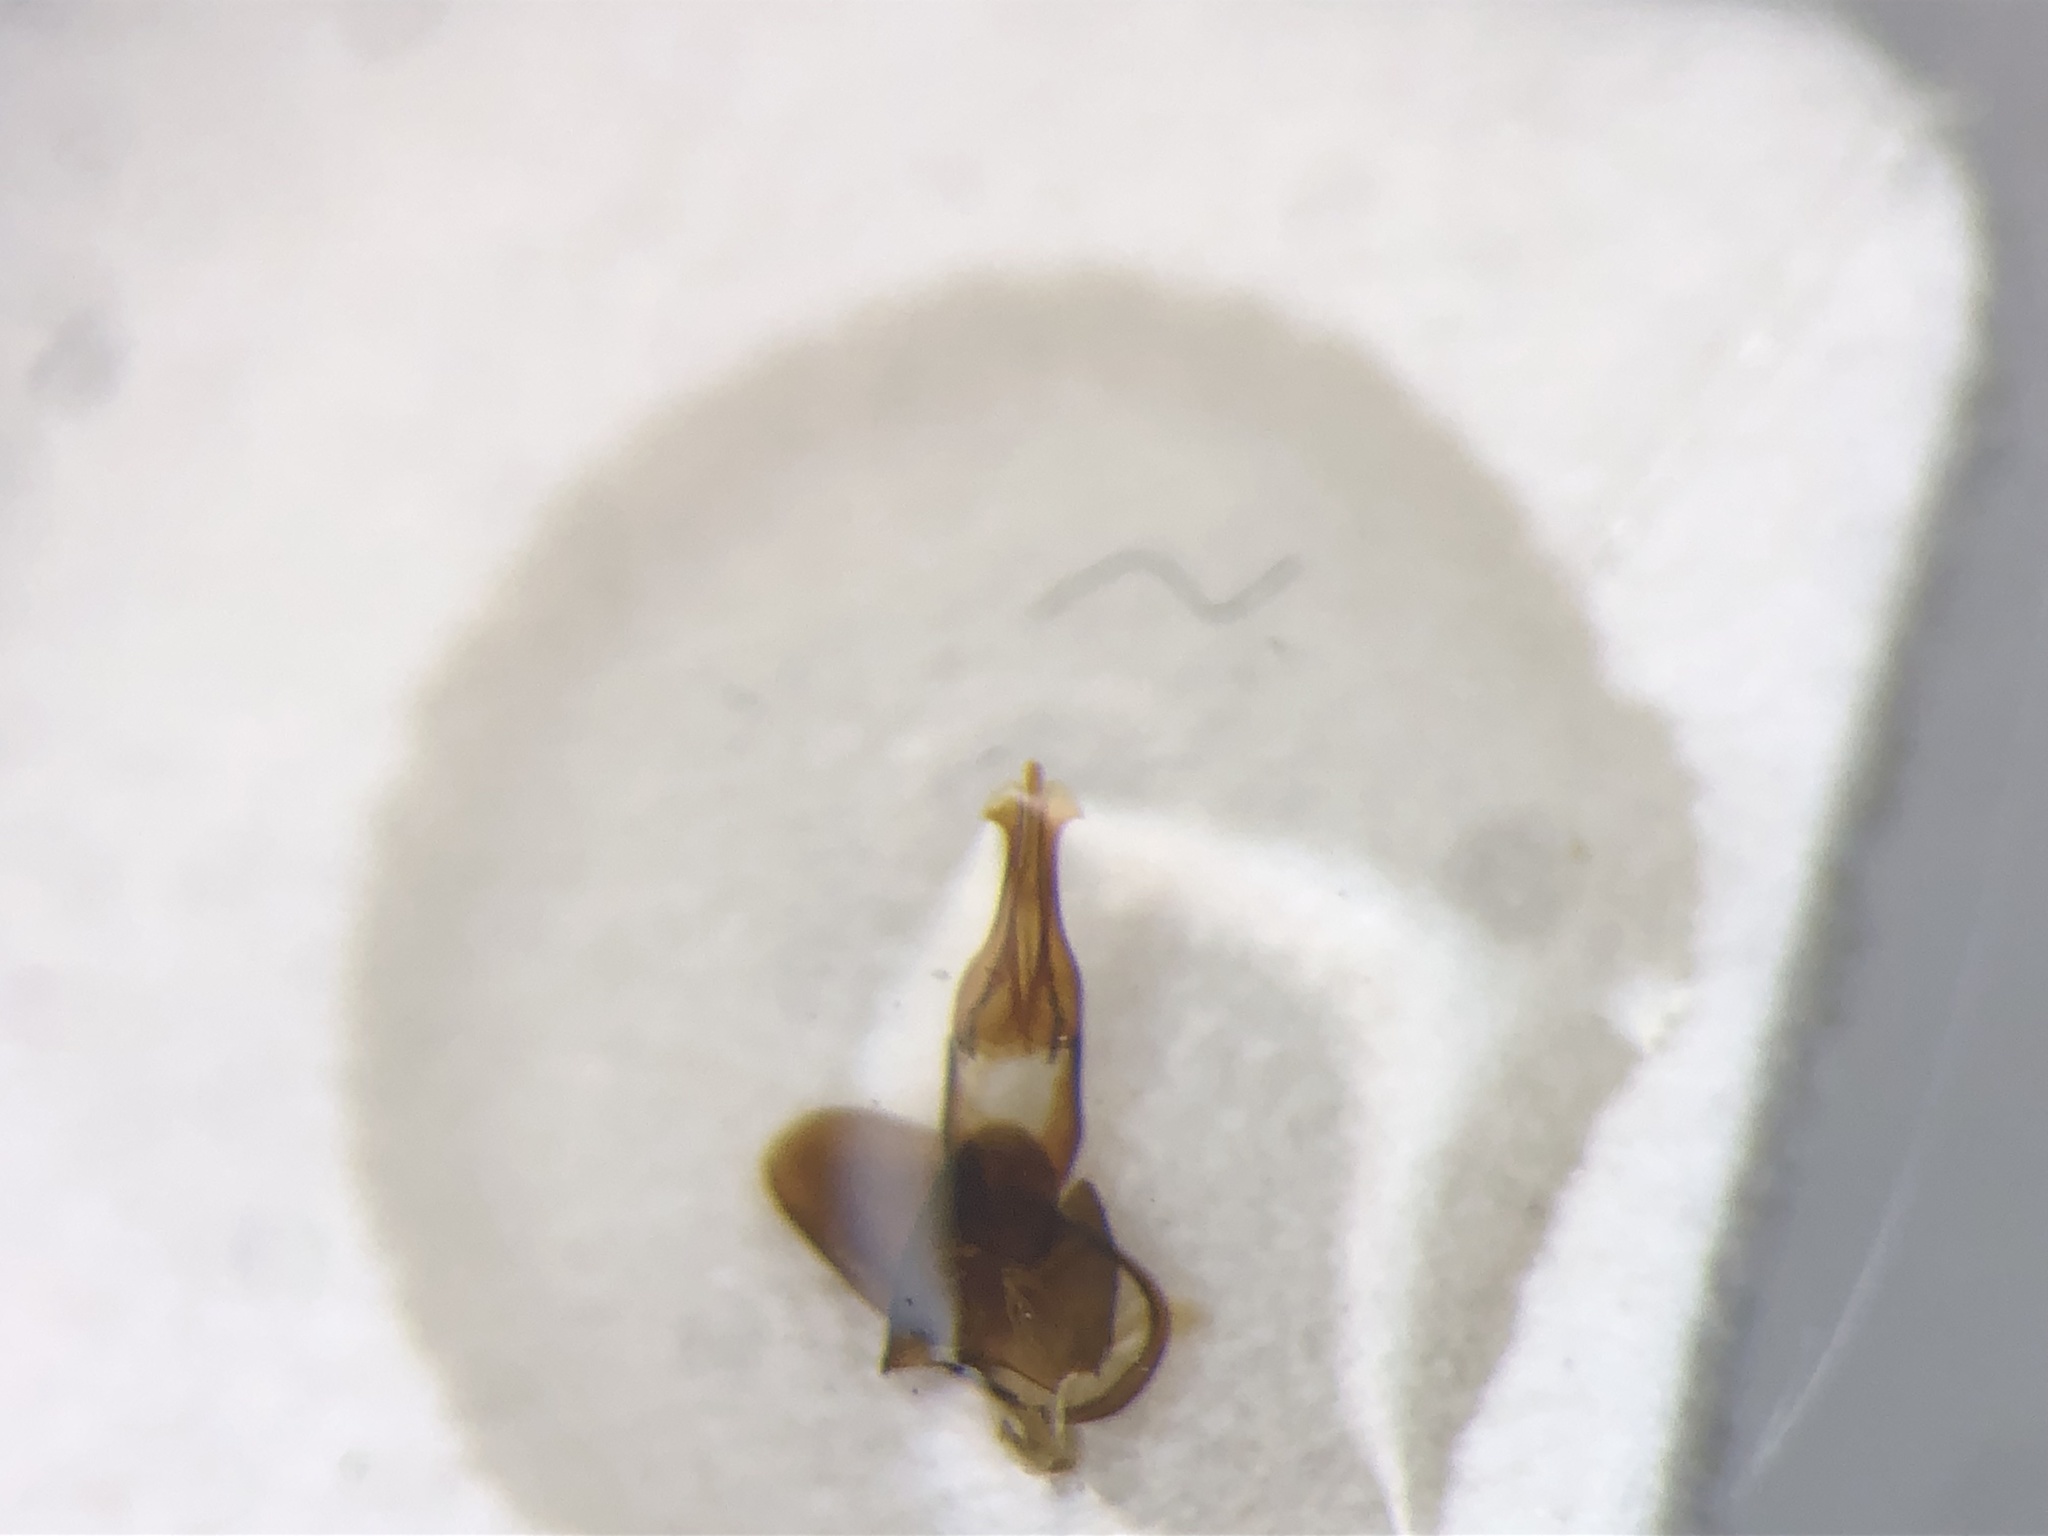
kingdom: Animalia
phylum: Arthropoda
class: Insecta
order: Coleoptera
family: Elateridae
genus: Stropenron
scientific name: Stropenron propola
